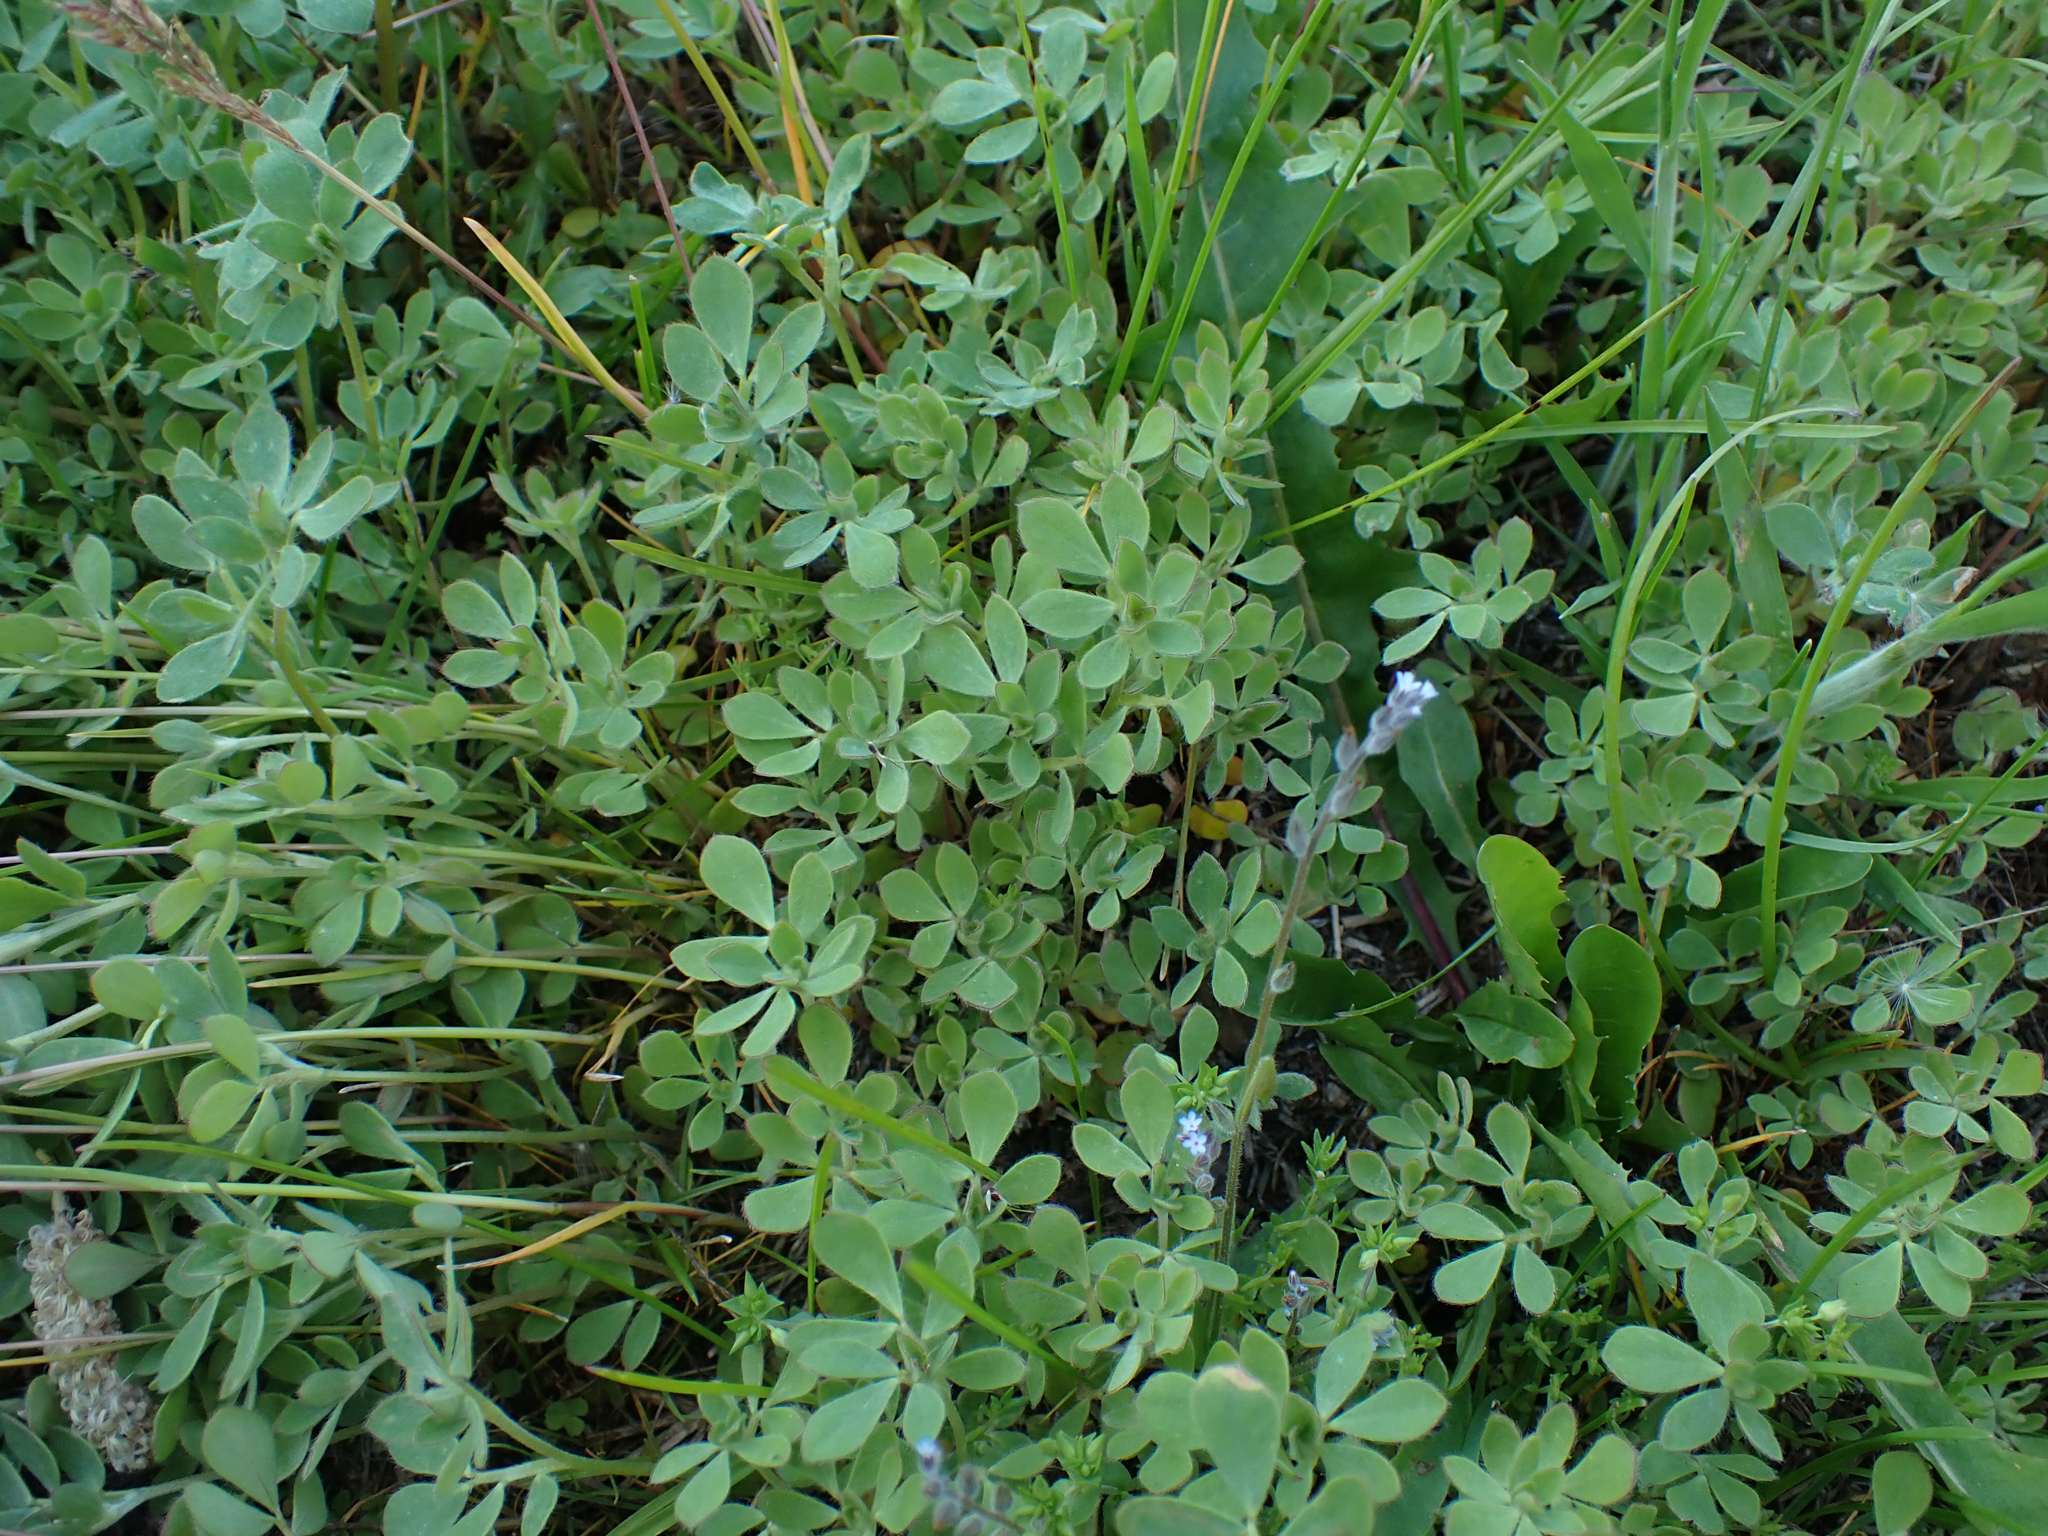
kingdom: Plantae
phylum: Tracheophyta
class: Magnoliopsida
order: Fabales
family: Fabaceae
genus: Acmispon
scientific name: Acmispon denticulatus
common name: Meadow bird's-foot trefoil
